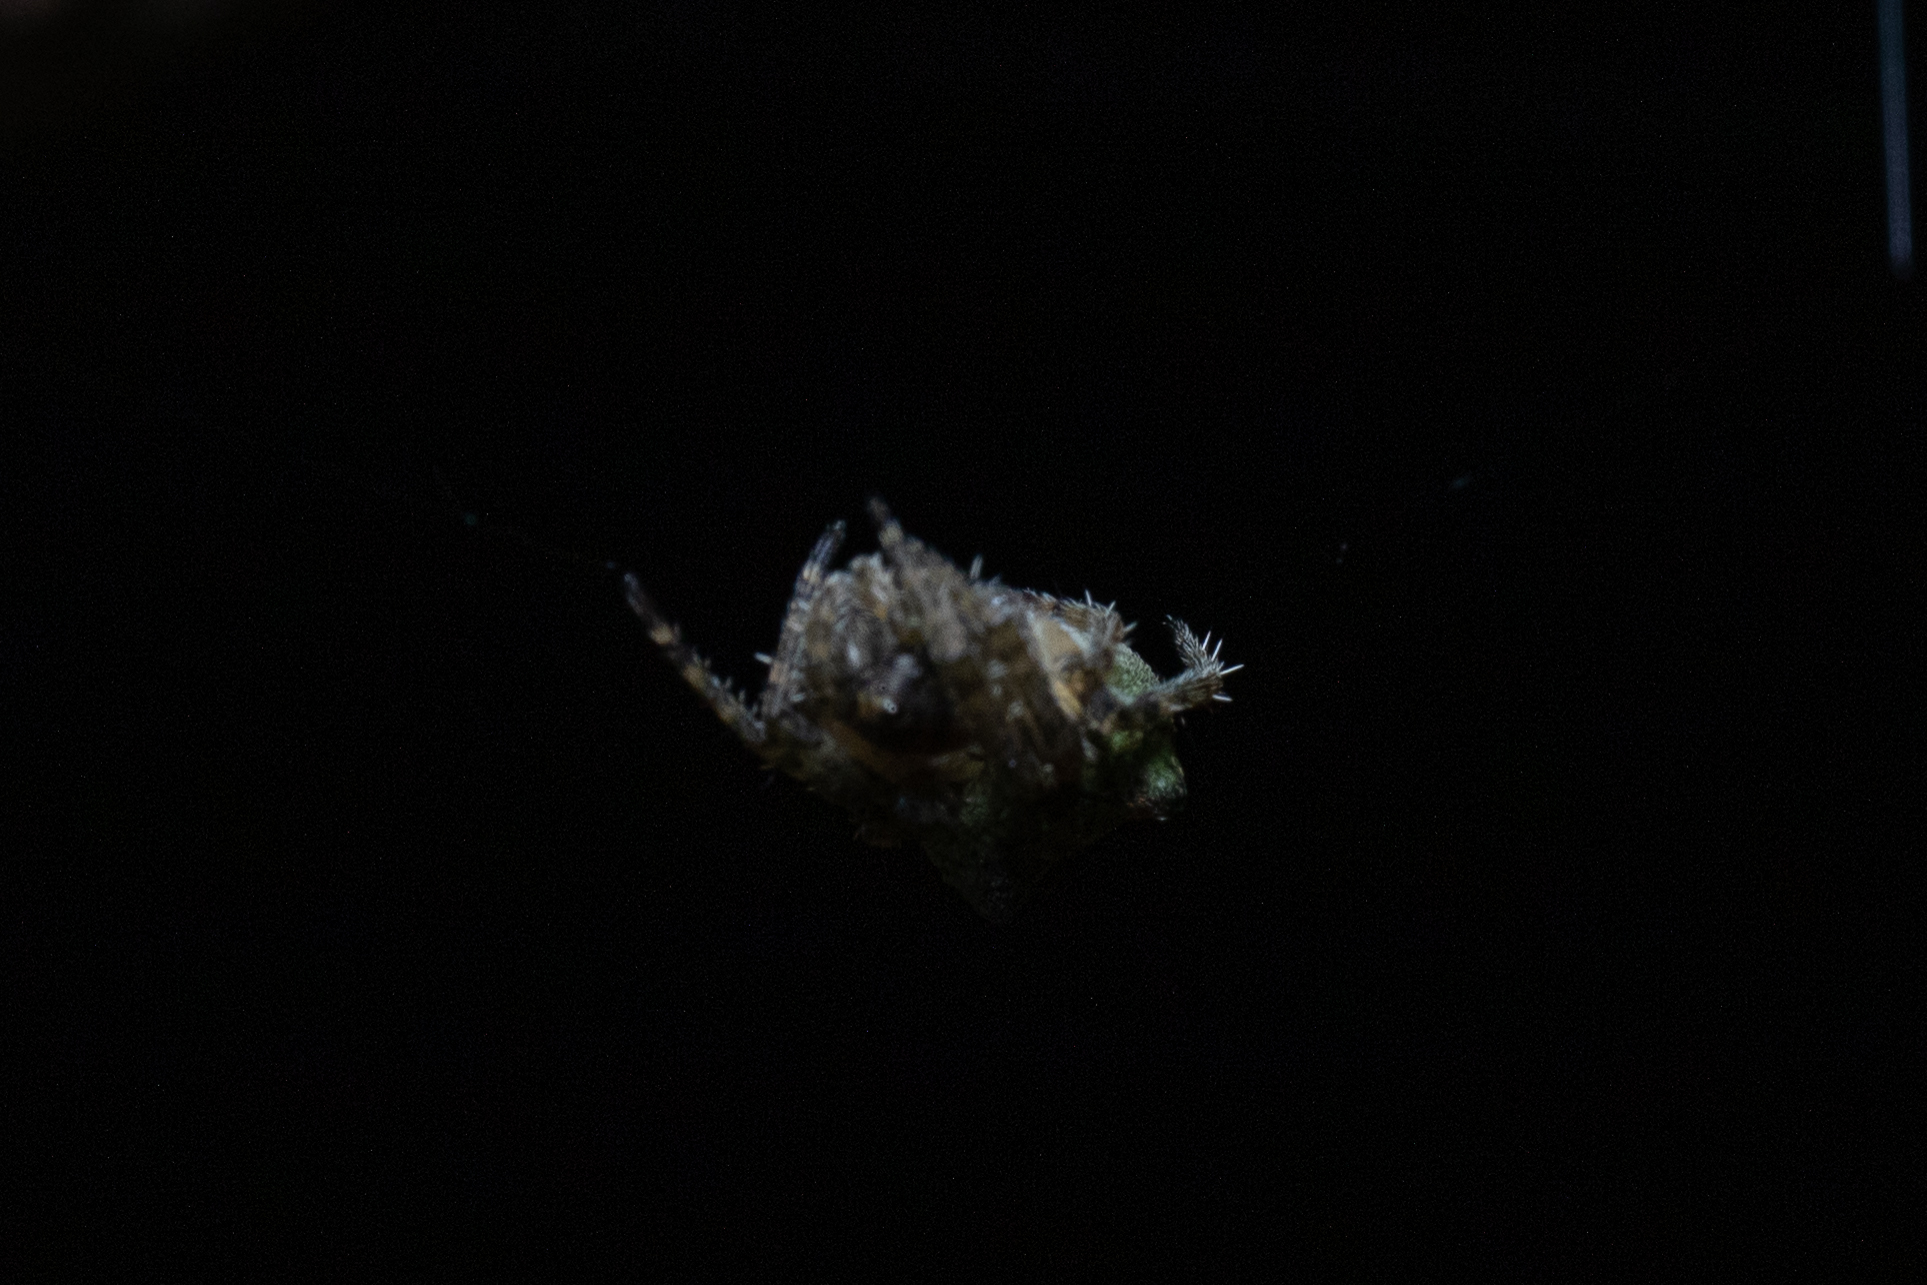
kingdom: Animalia
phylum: Arthropoda
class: Arachnida
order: Araneae
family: Araneidae
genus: Gibbaranea
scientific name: Gibbaranea gibbosa
